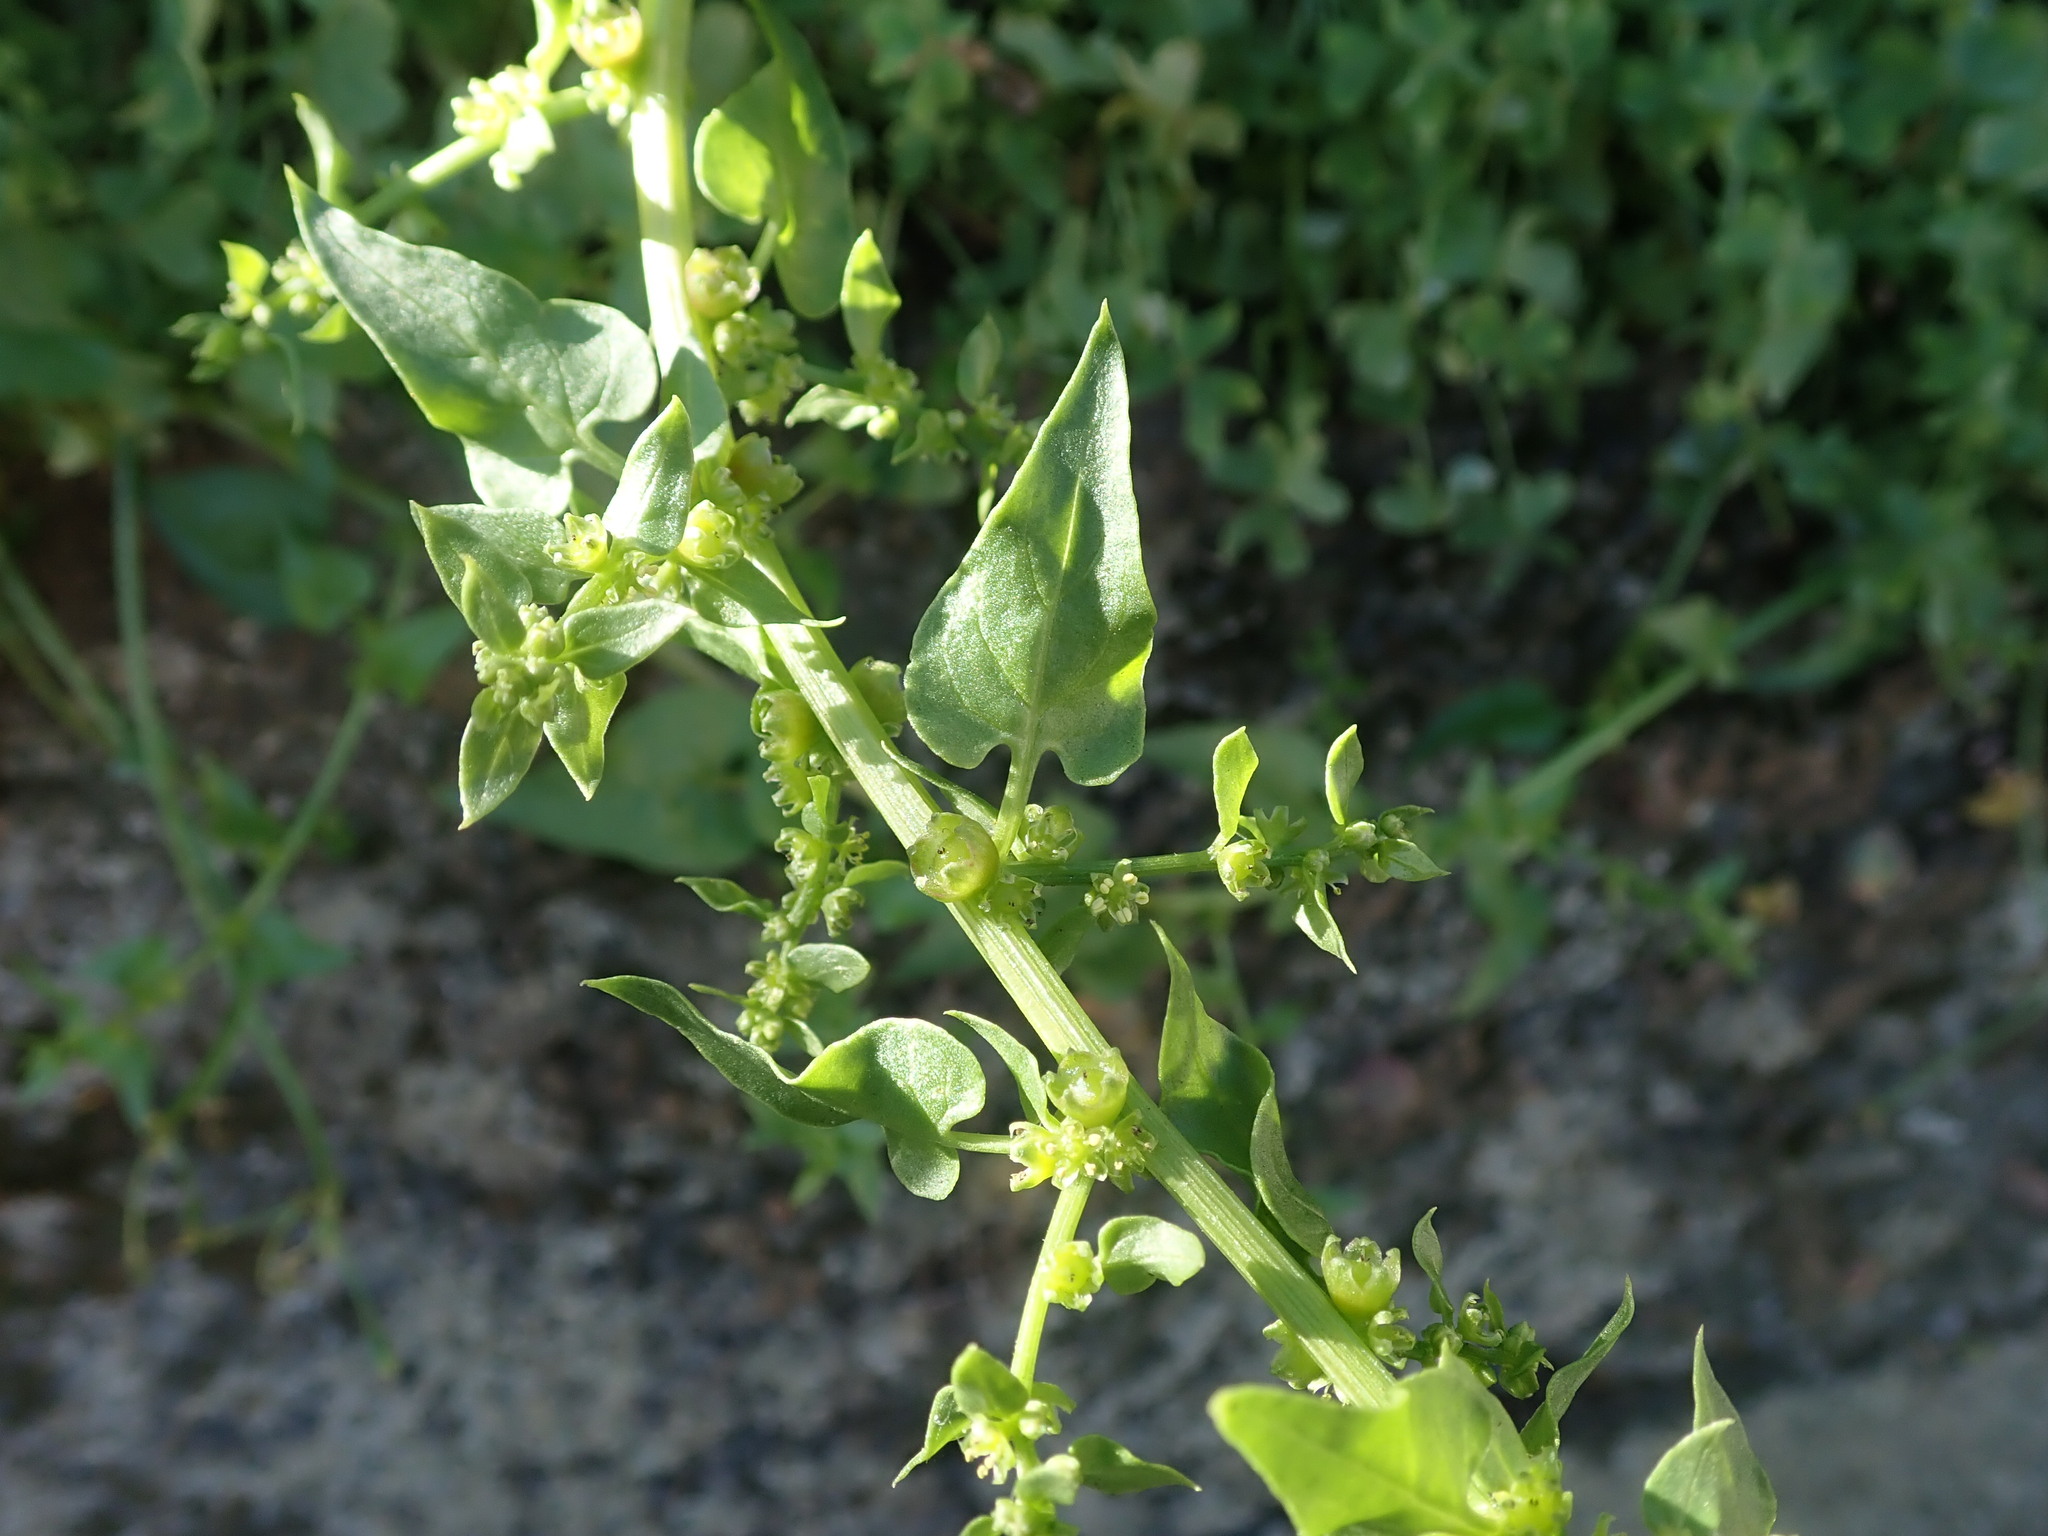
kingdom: Plantae
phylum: Tracheophyta
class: Magnoliopsida
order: Caryophyllales
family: Amaranthaceae
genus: Patellifolia
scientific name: Patellifolia procumbens
